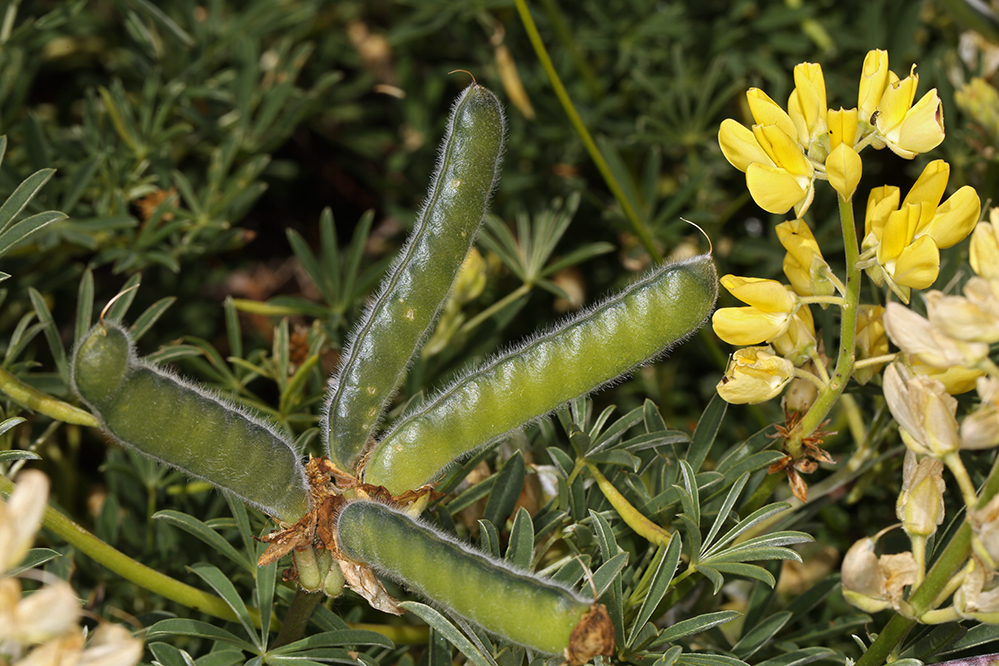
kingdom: Plantae
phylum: Tracheophyta
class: Magnoliopsida
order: Fabales
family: Fabaceae
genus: Lupinus
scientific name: Lupinus arboreus
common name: Yellow bush lupine
